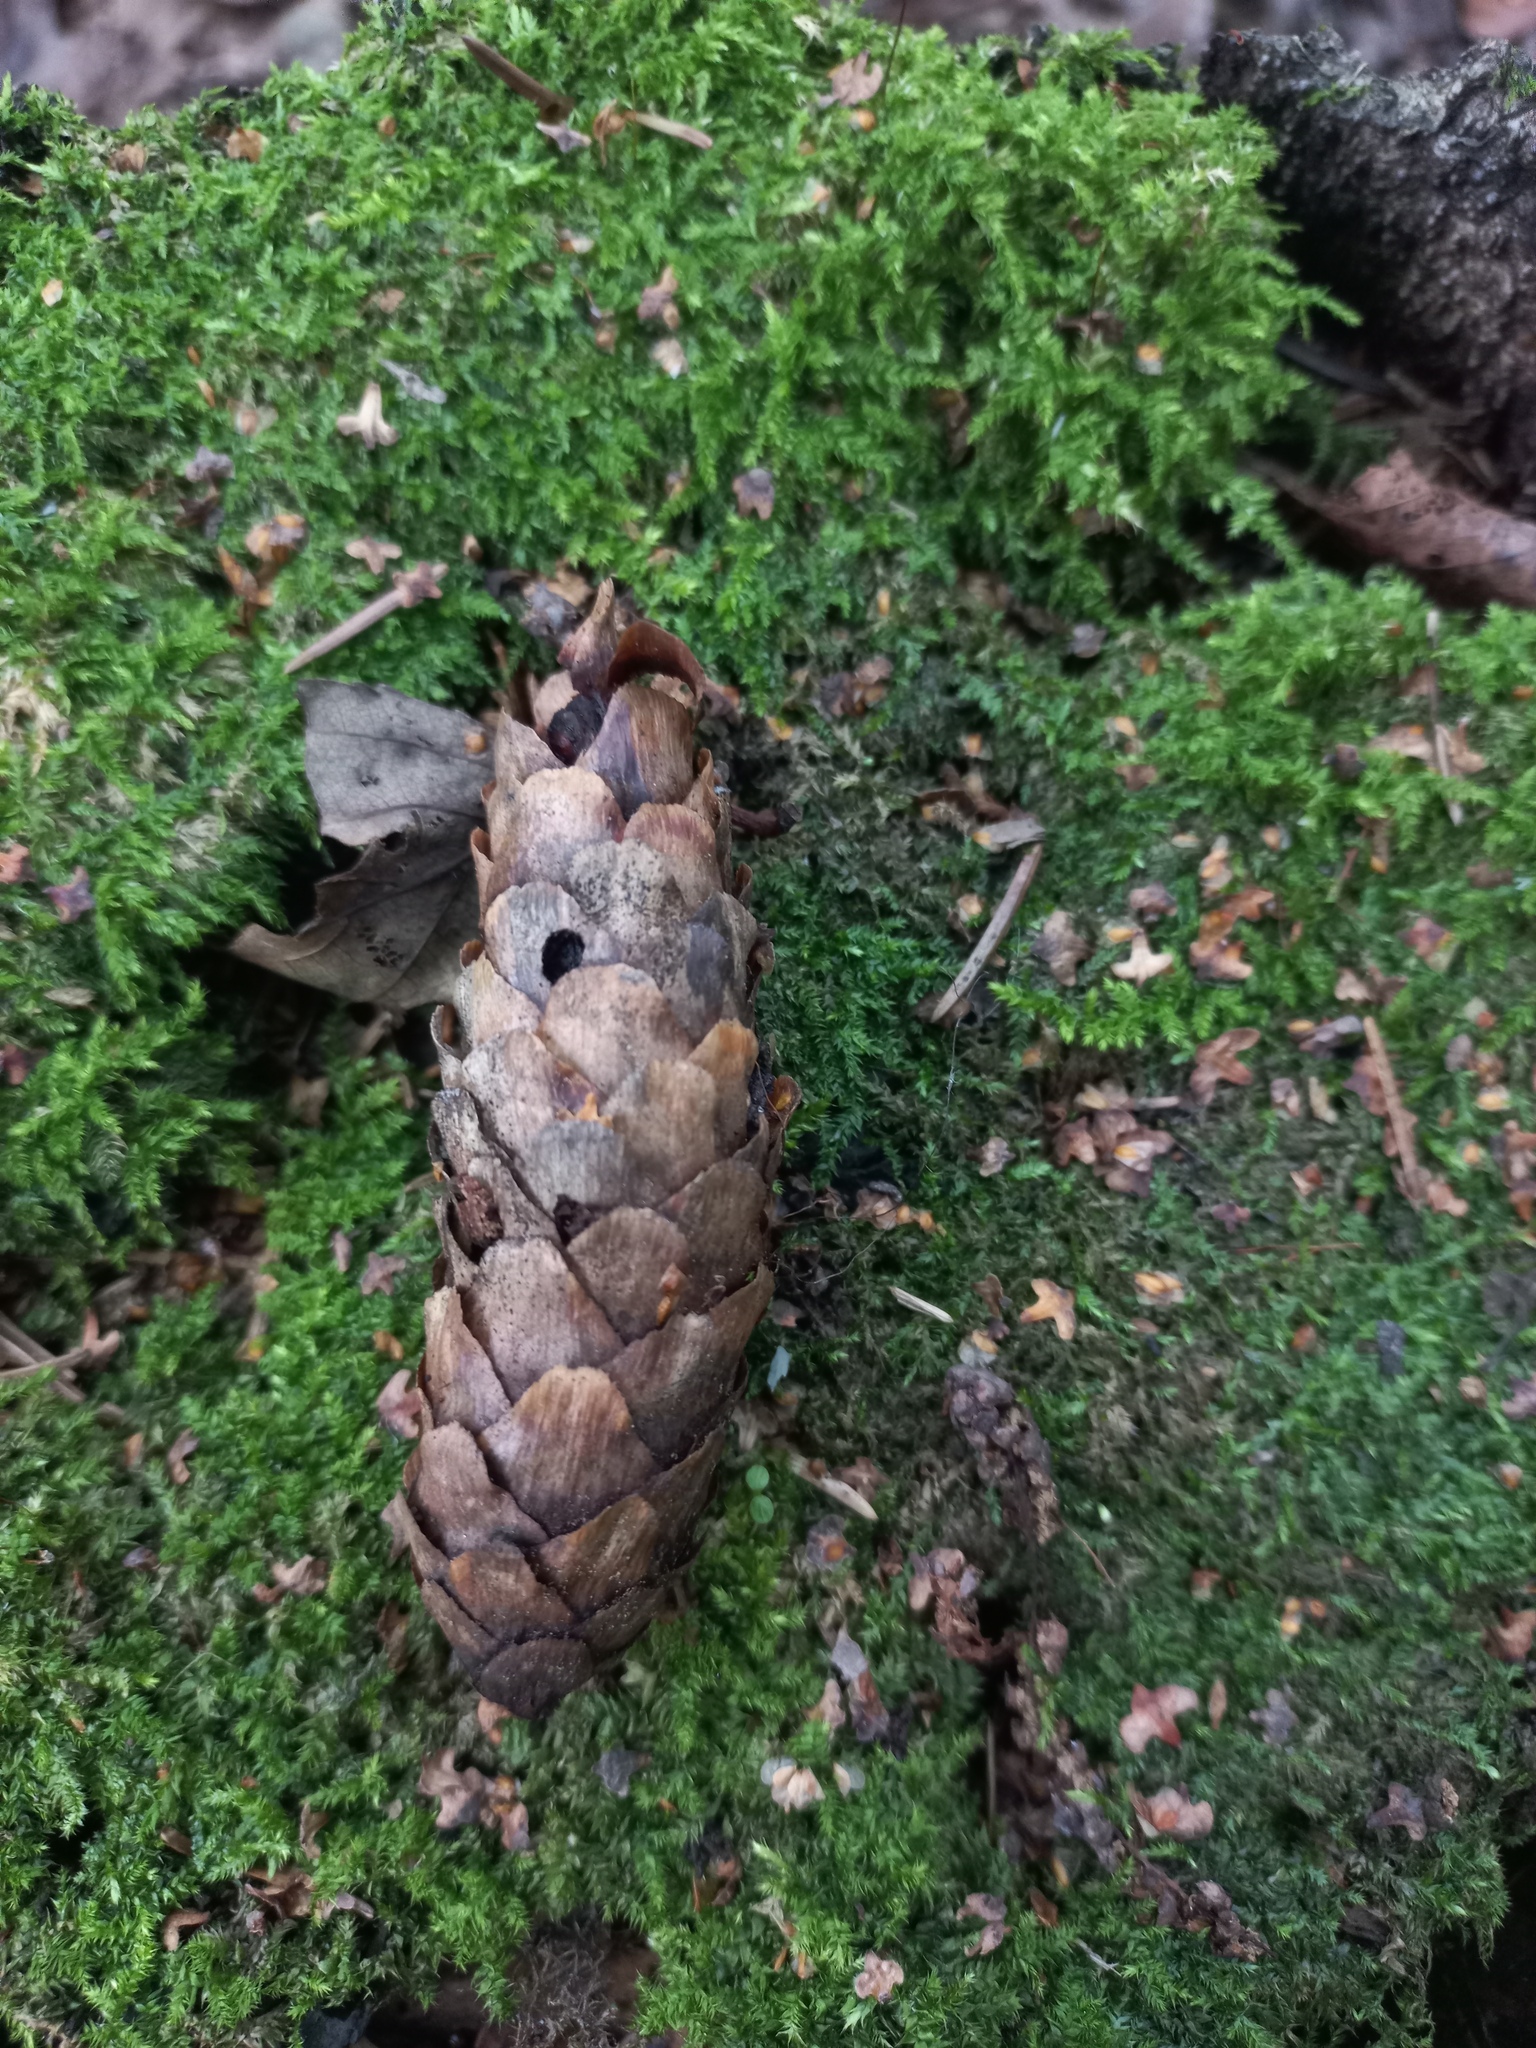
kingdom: Plantae
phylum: Tracheophyta
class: Pinopsida
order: Pinales
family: Pinaceae
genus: Picea
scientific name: Picea abies
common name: Norway spruce
